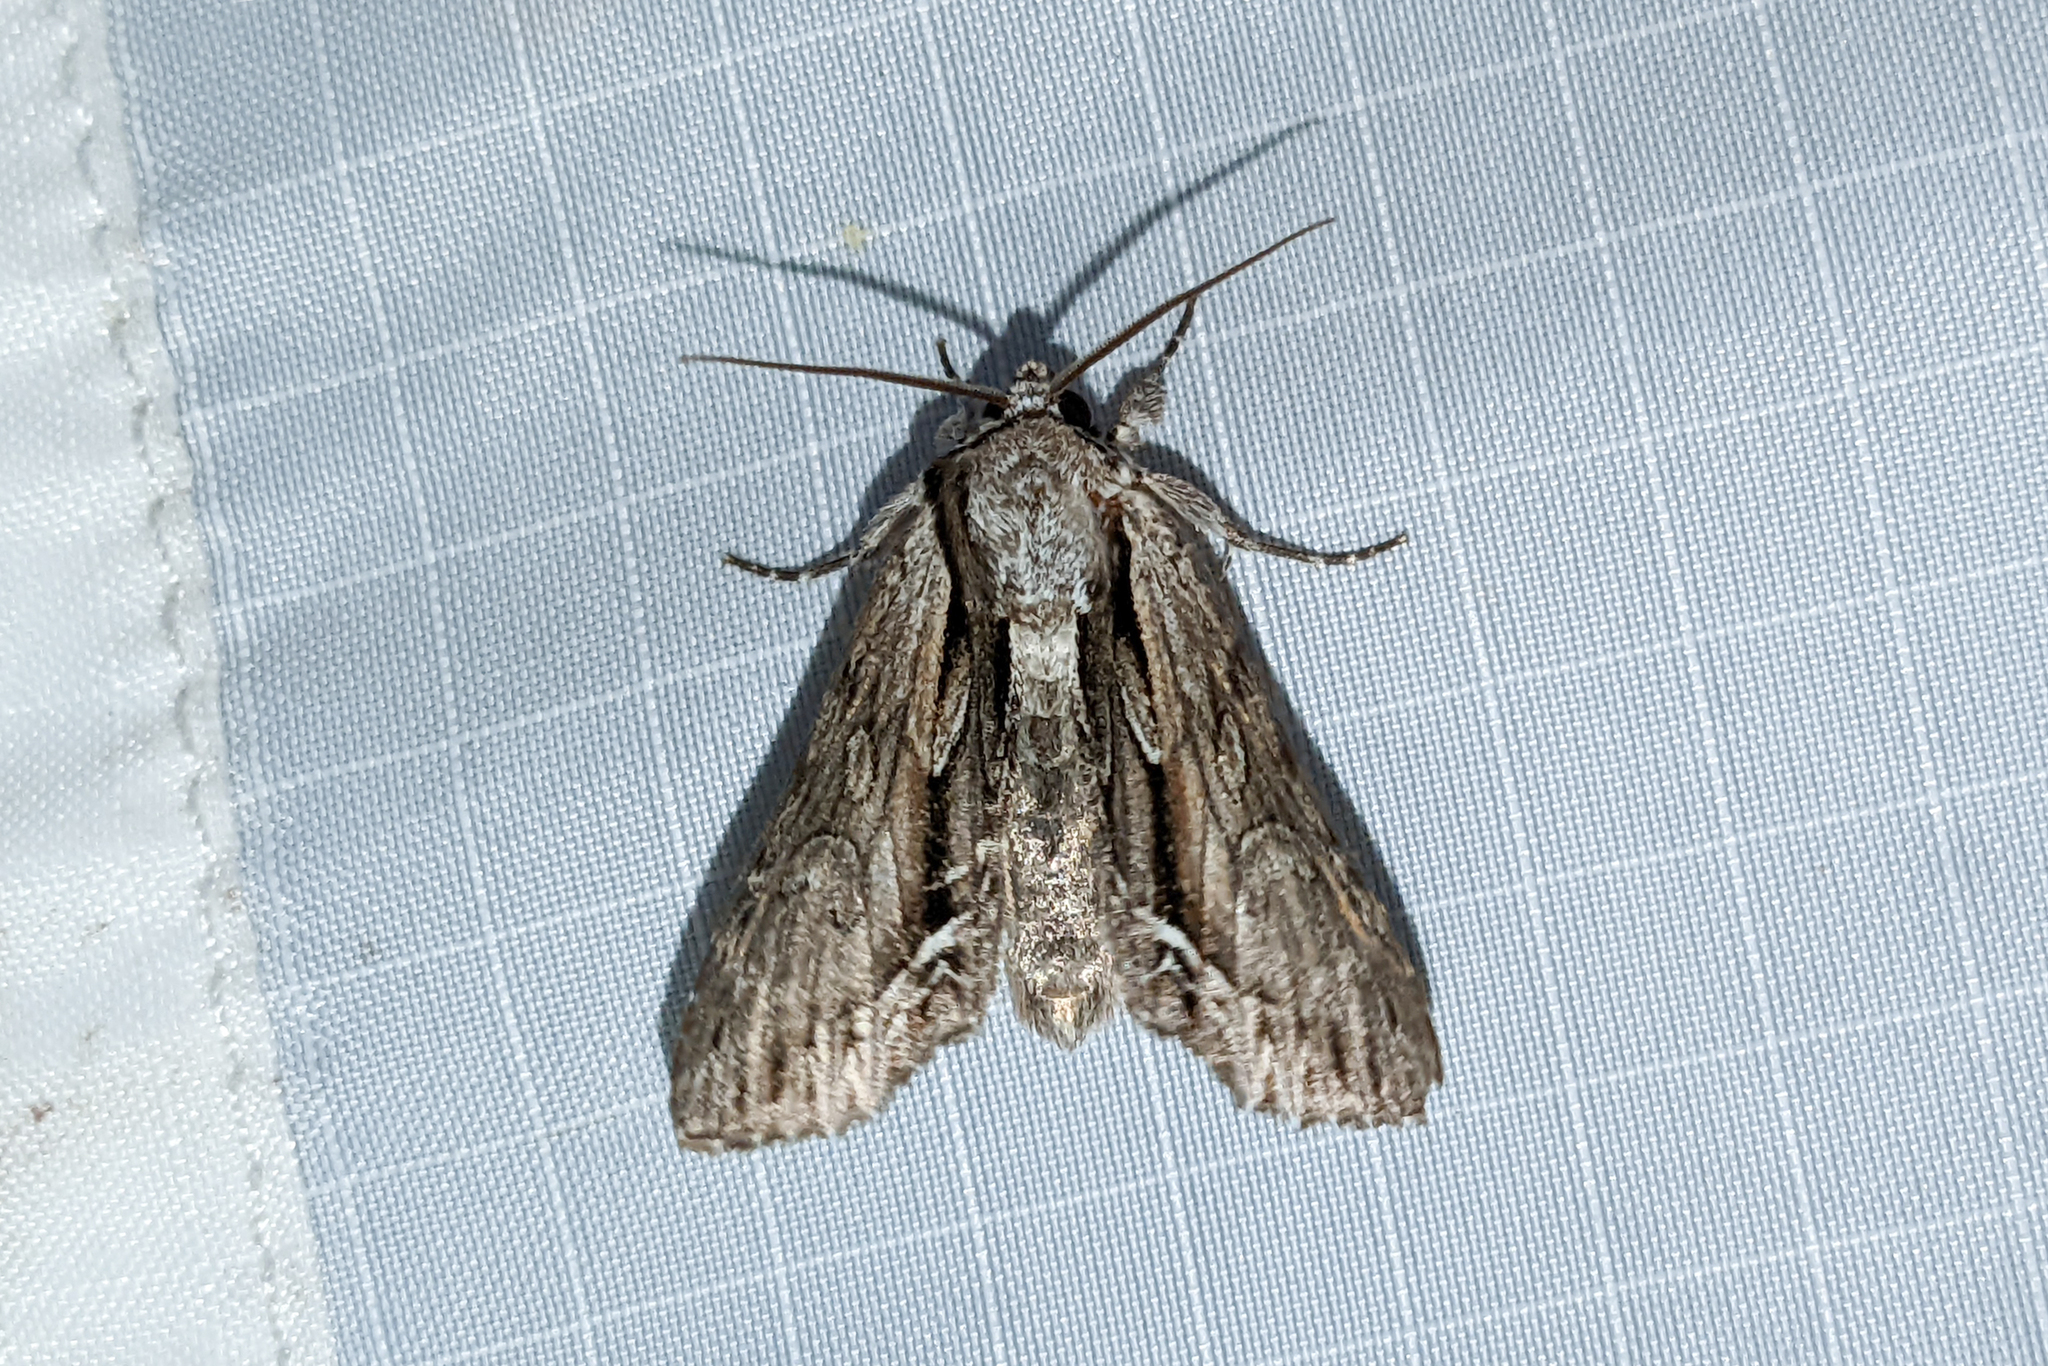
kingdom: Animalia
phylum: Arthropoda
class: Insecta
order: Lepidoptera
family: Noctuidae
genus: Hyppa
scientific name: Hyppa xylinoides
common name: Common hyppa moth
